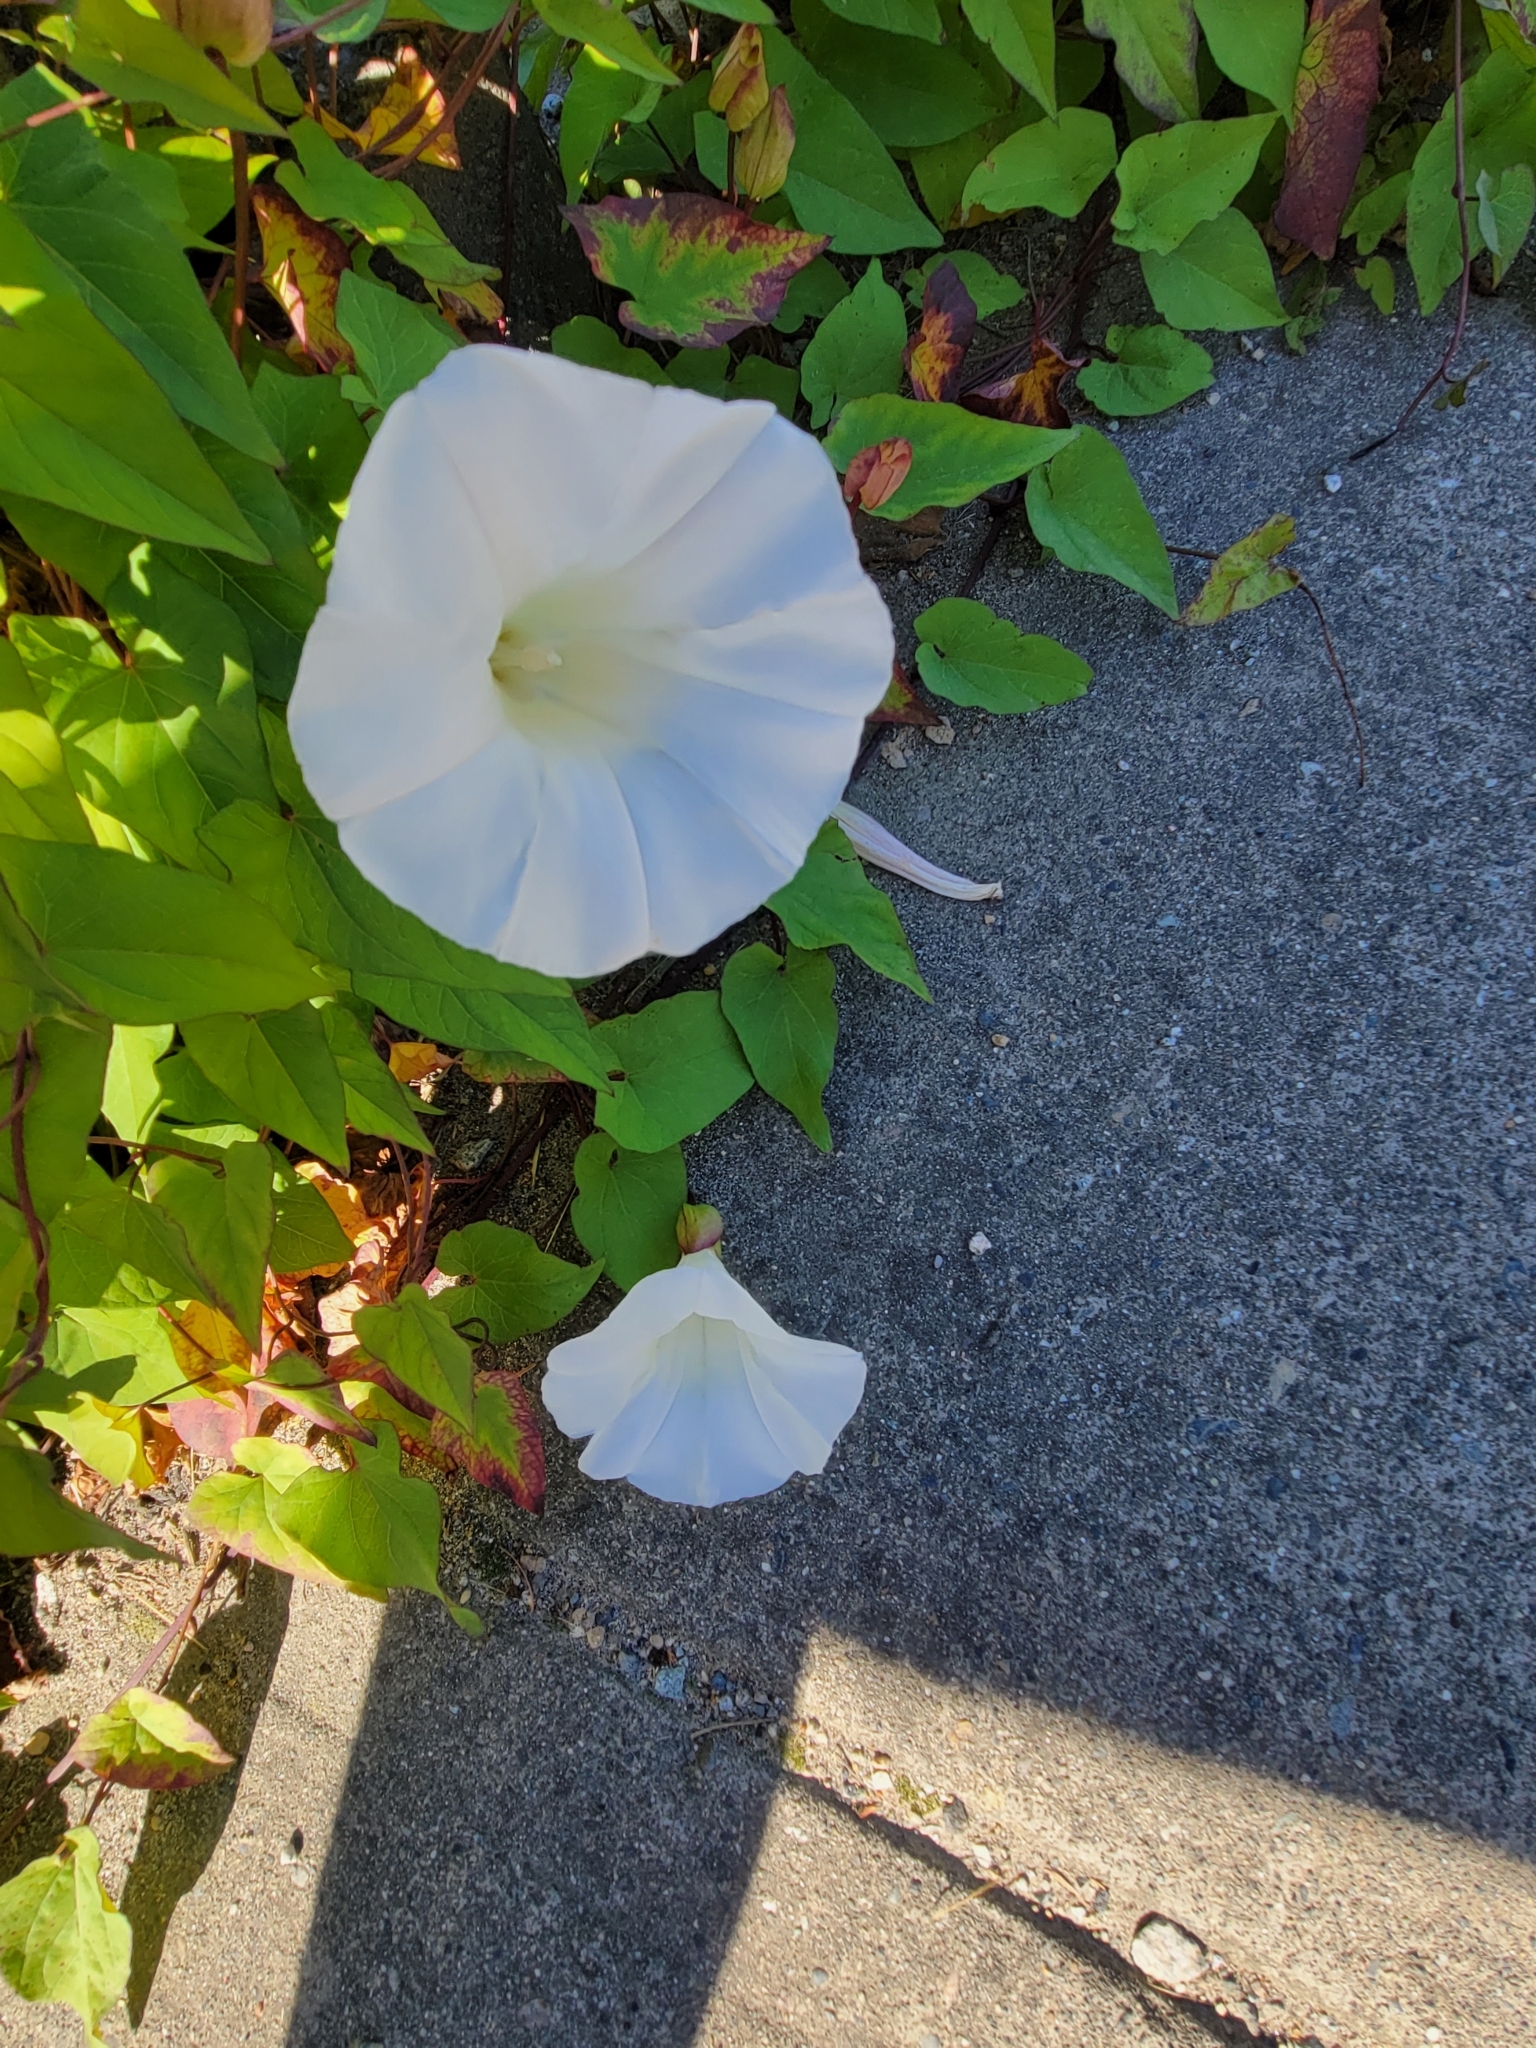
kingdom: Plantae
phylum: Tracheophyta
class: Magnoliopsida
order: Solanales
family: Convolvulaceae
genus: Calystegia
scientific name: Calystegia silvatica
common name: Large bindweed
